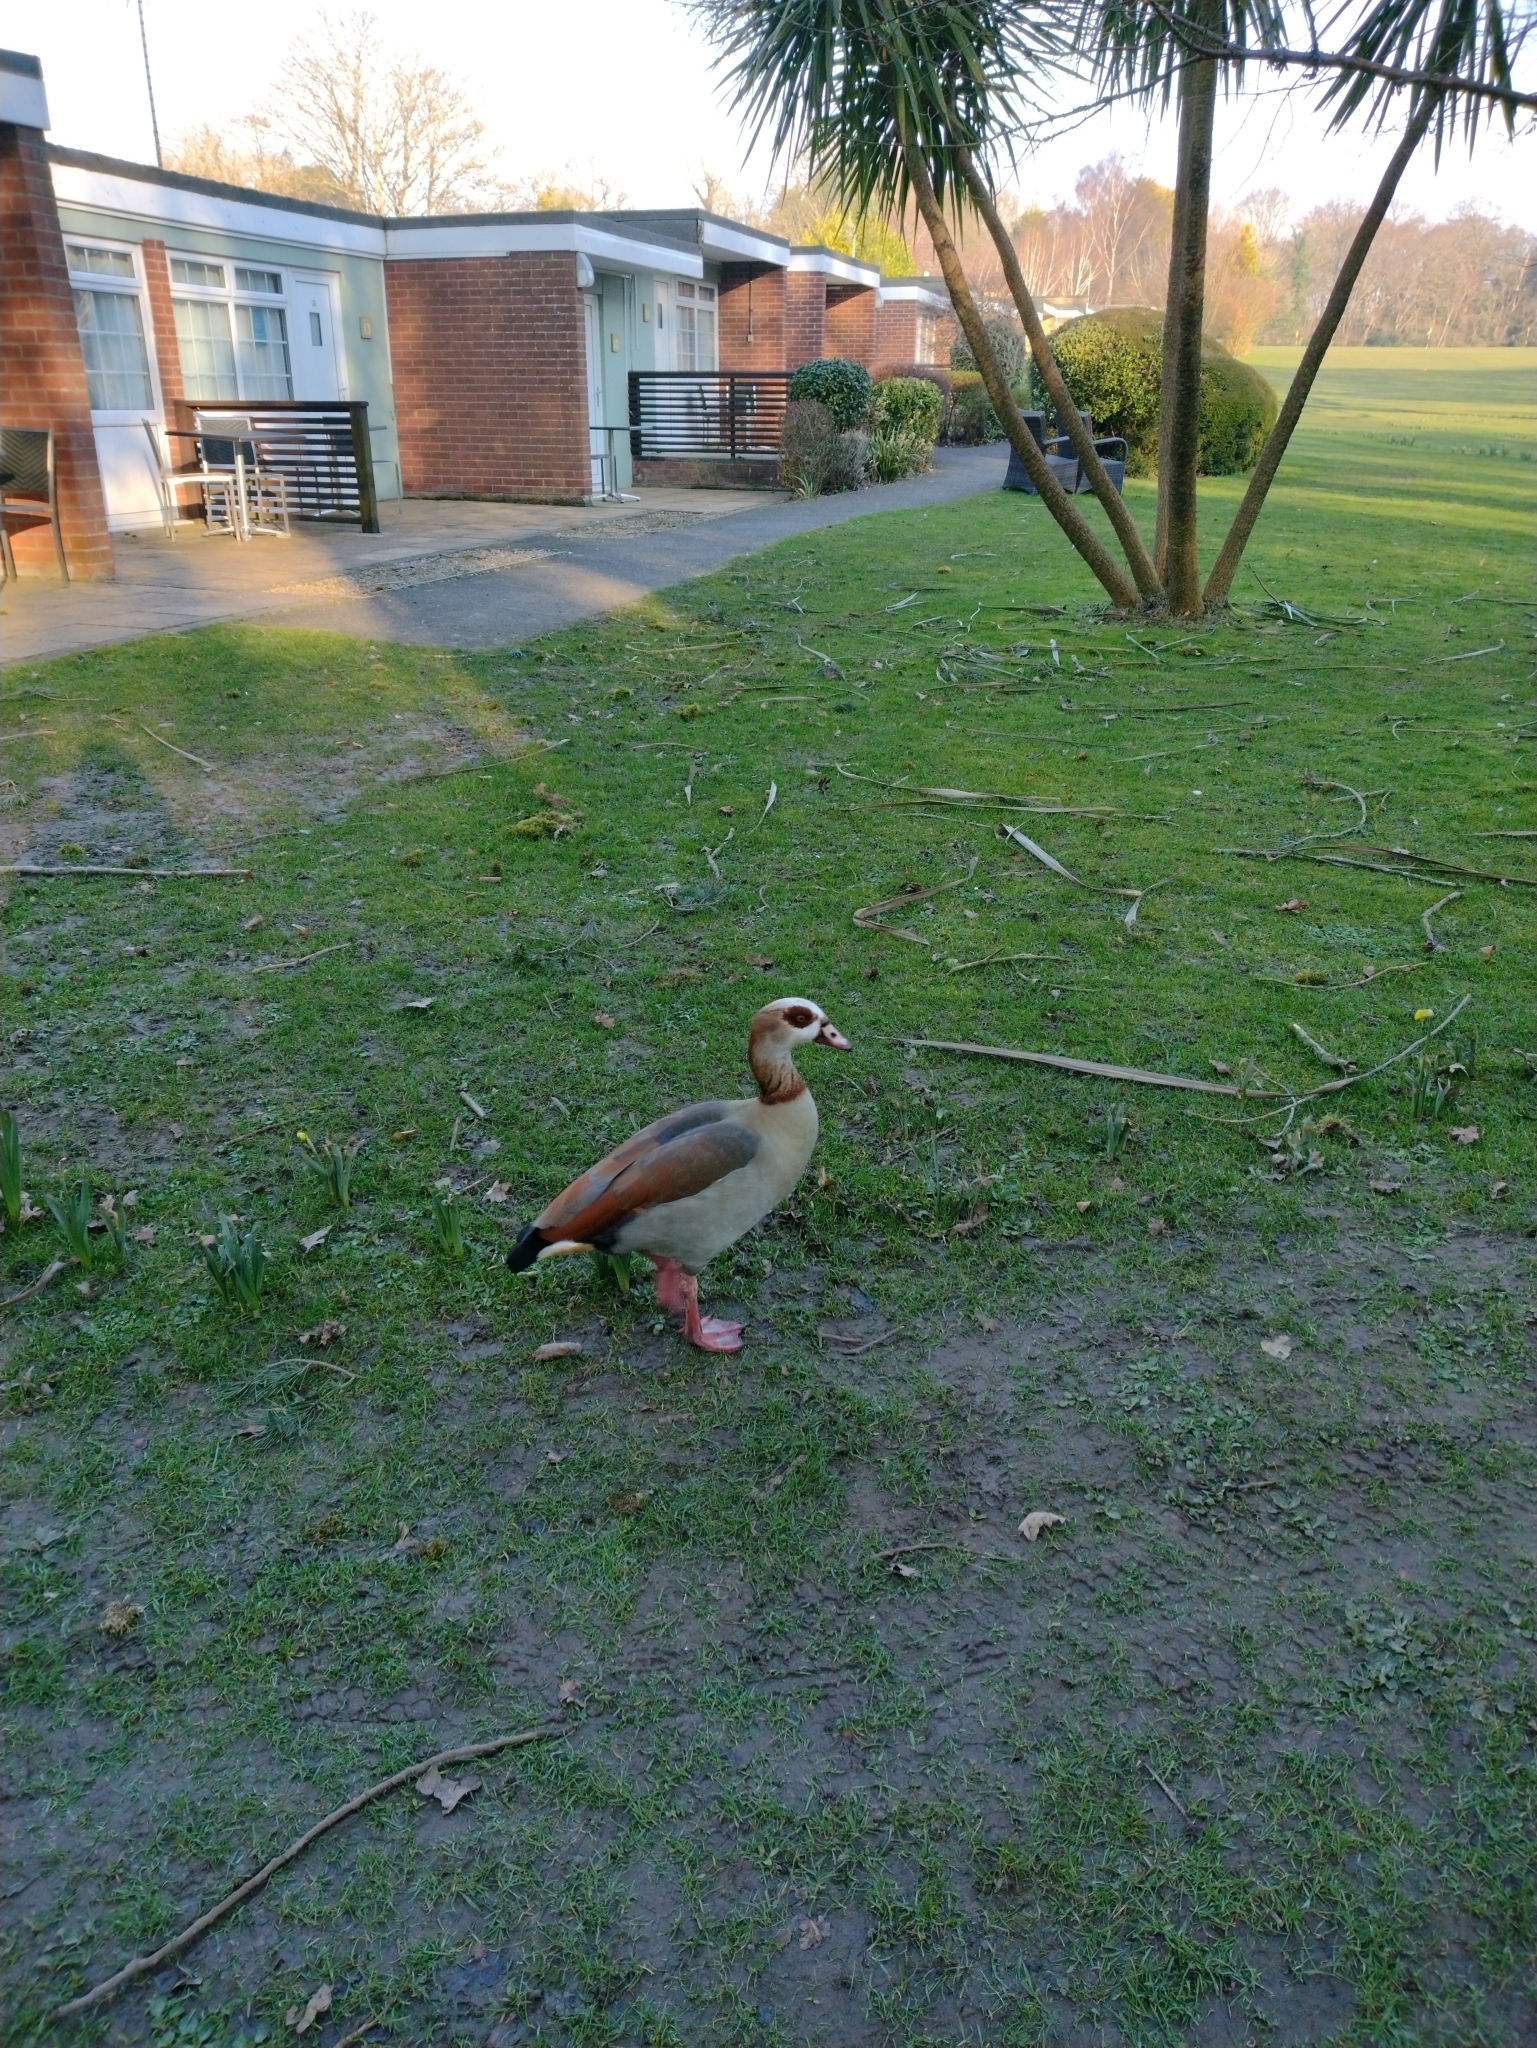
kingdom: Animalia
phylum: Chordata
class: Aves
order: Anseriformes
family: Anatidae
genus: Alopochen
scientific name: Alopochen aegyptiaca
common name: Egyptian goose
